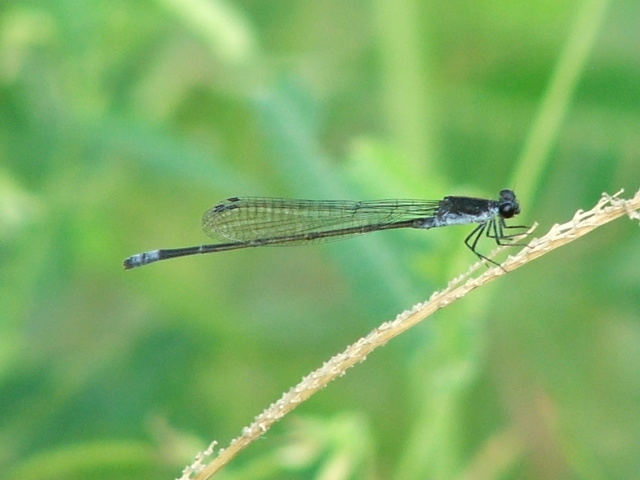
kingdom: Animalia
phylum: Arthropoda
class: Insecta
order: Odonata
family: Coenagrionidae
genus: Pseudagrion
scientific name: Pseudagrion commoniae
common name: Black sprite
